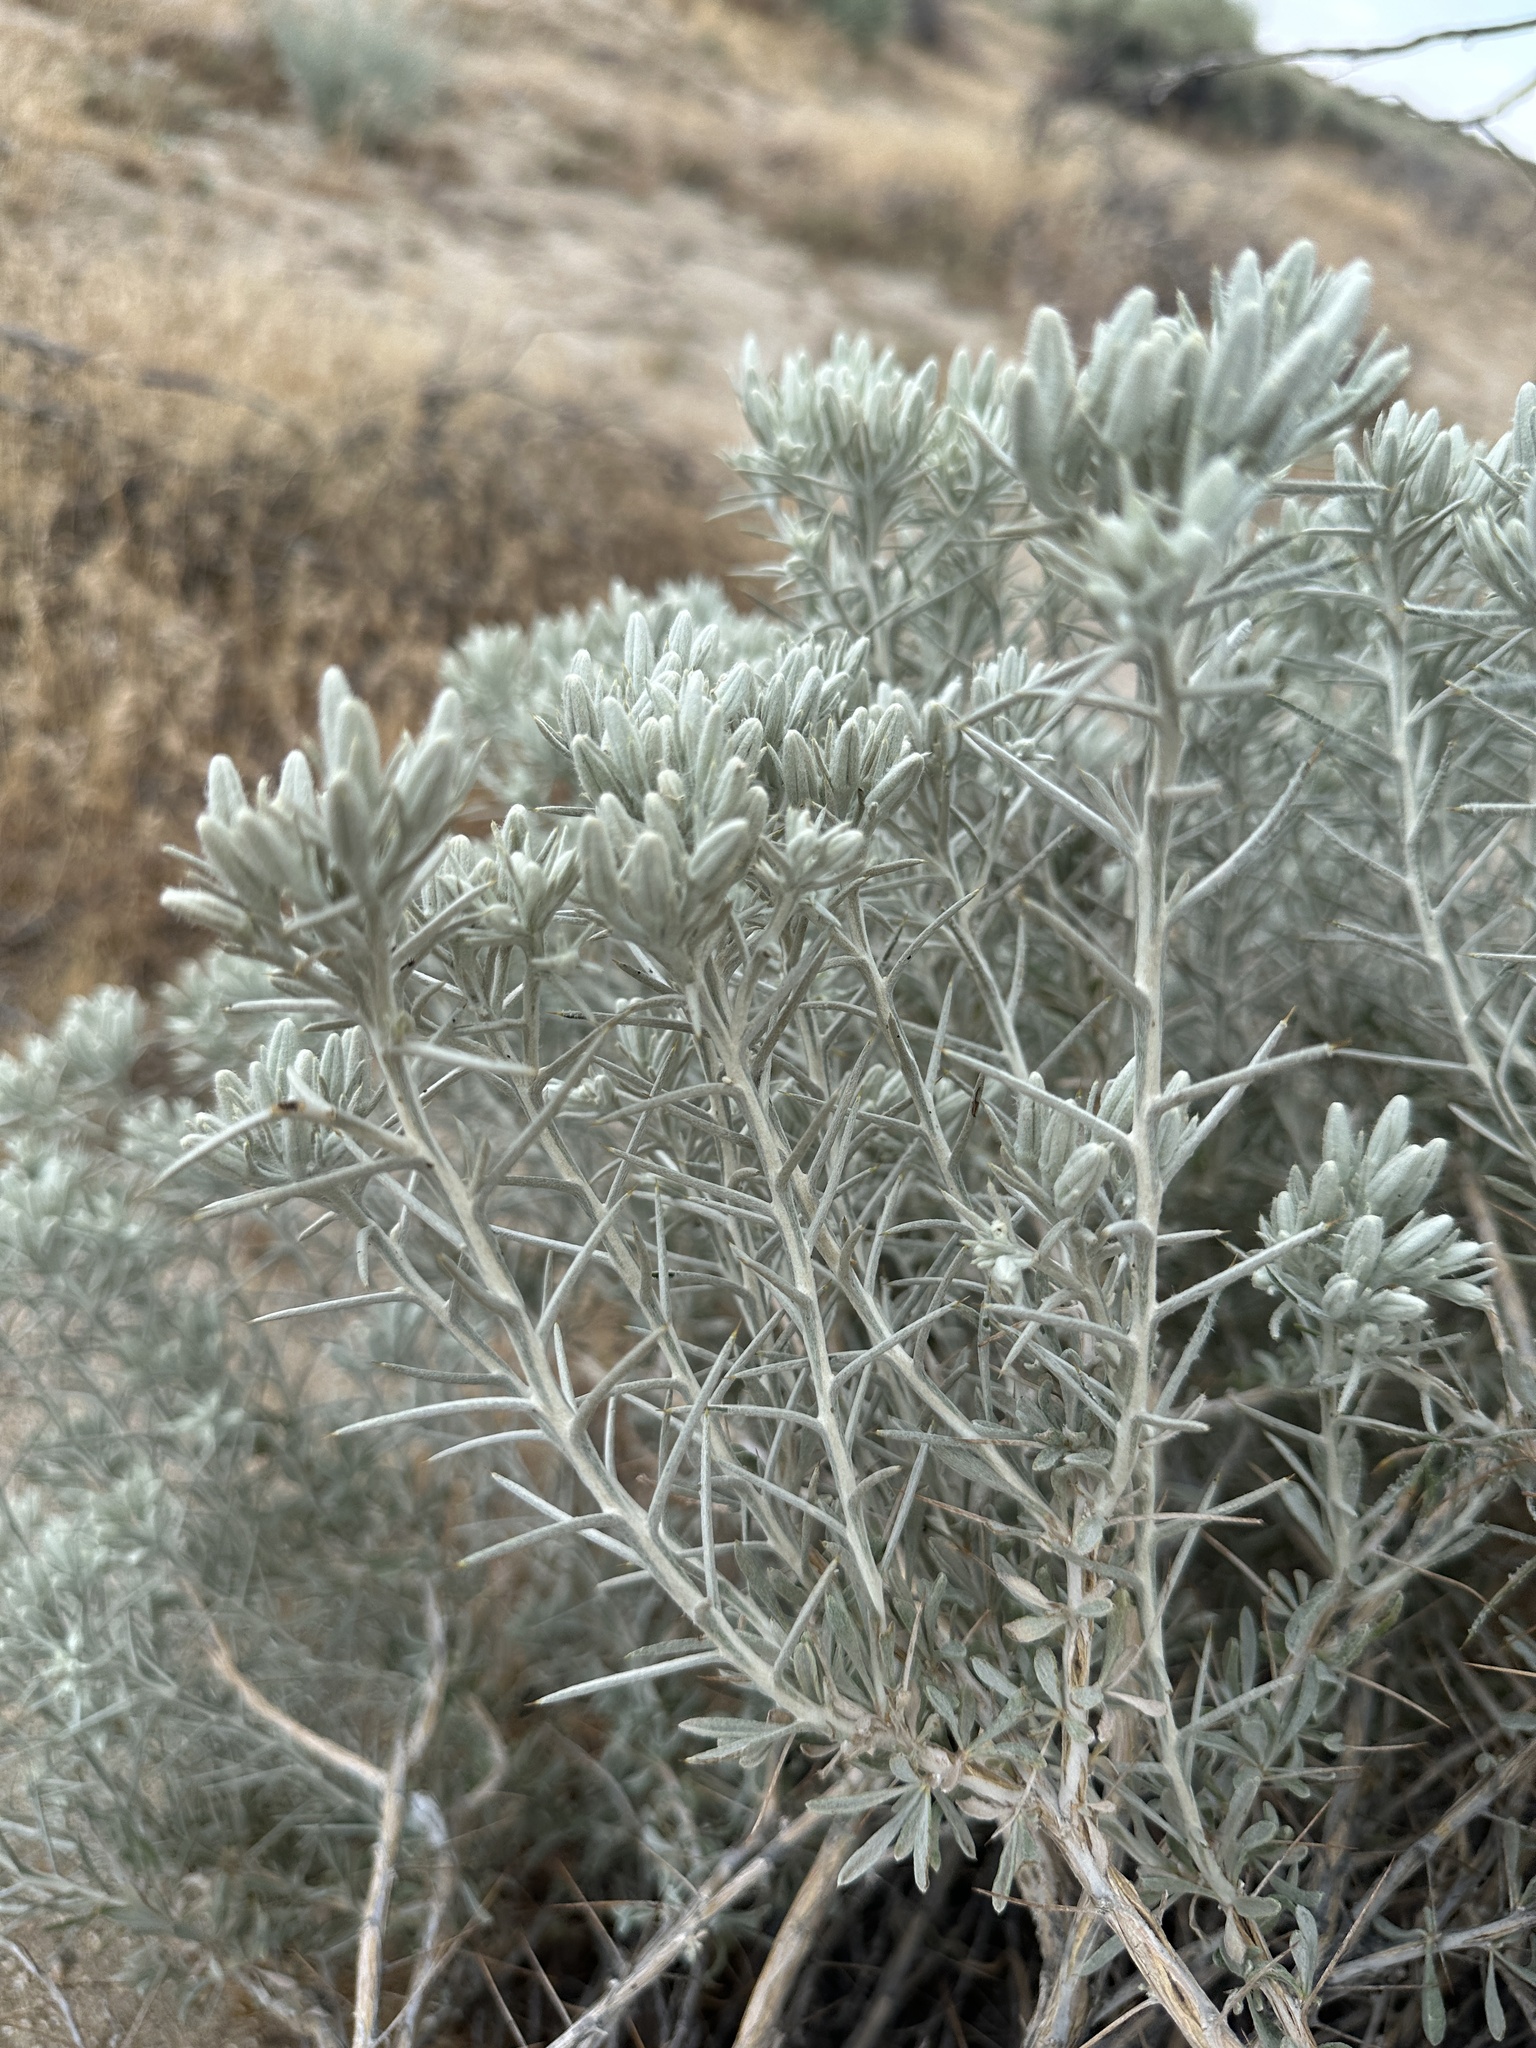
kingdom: Plantae
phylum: Tracheophyta
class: Magnoliopsida
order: Asterales
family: Asteraceae
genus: Tetradymia
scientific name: Tetradymia stenolepis
